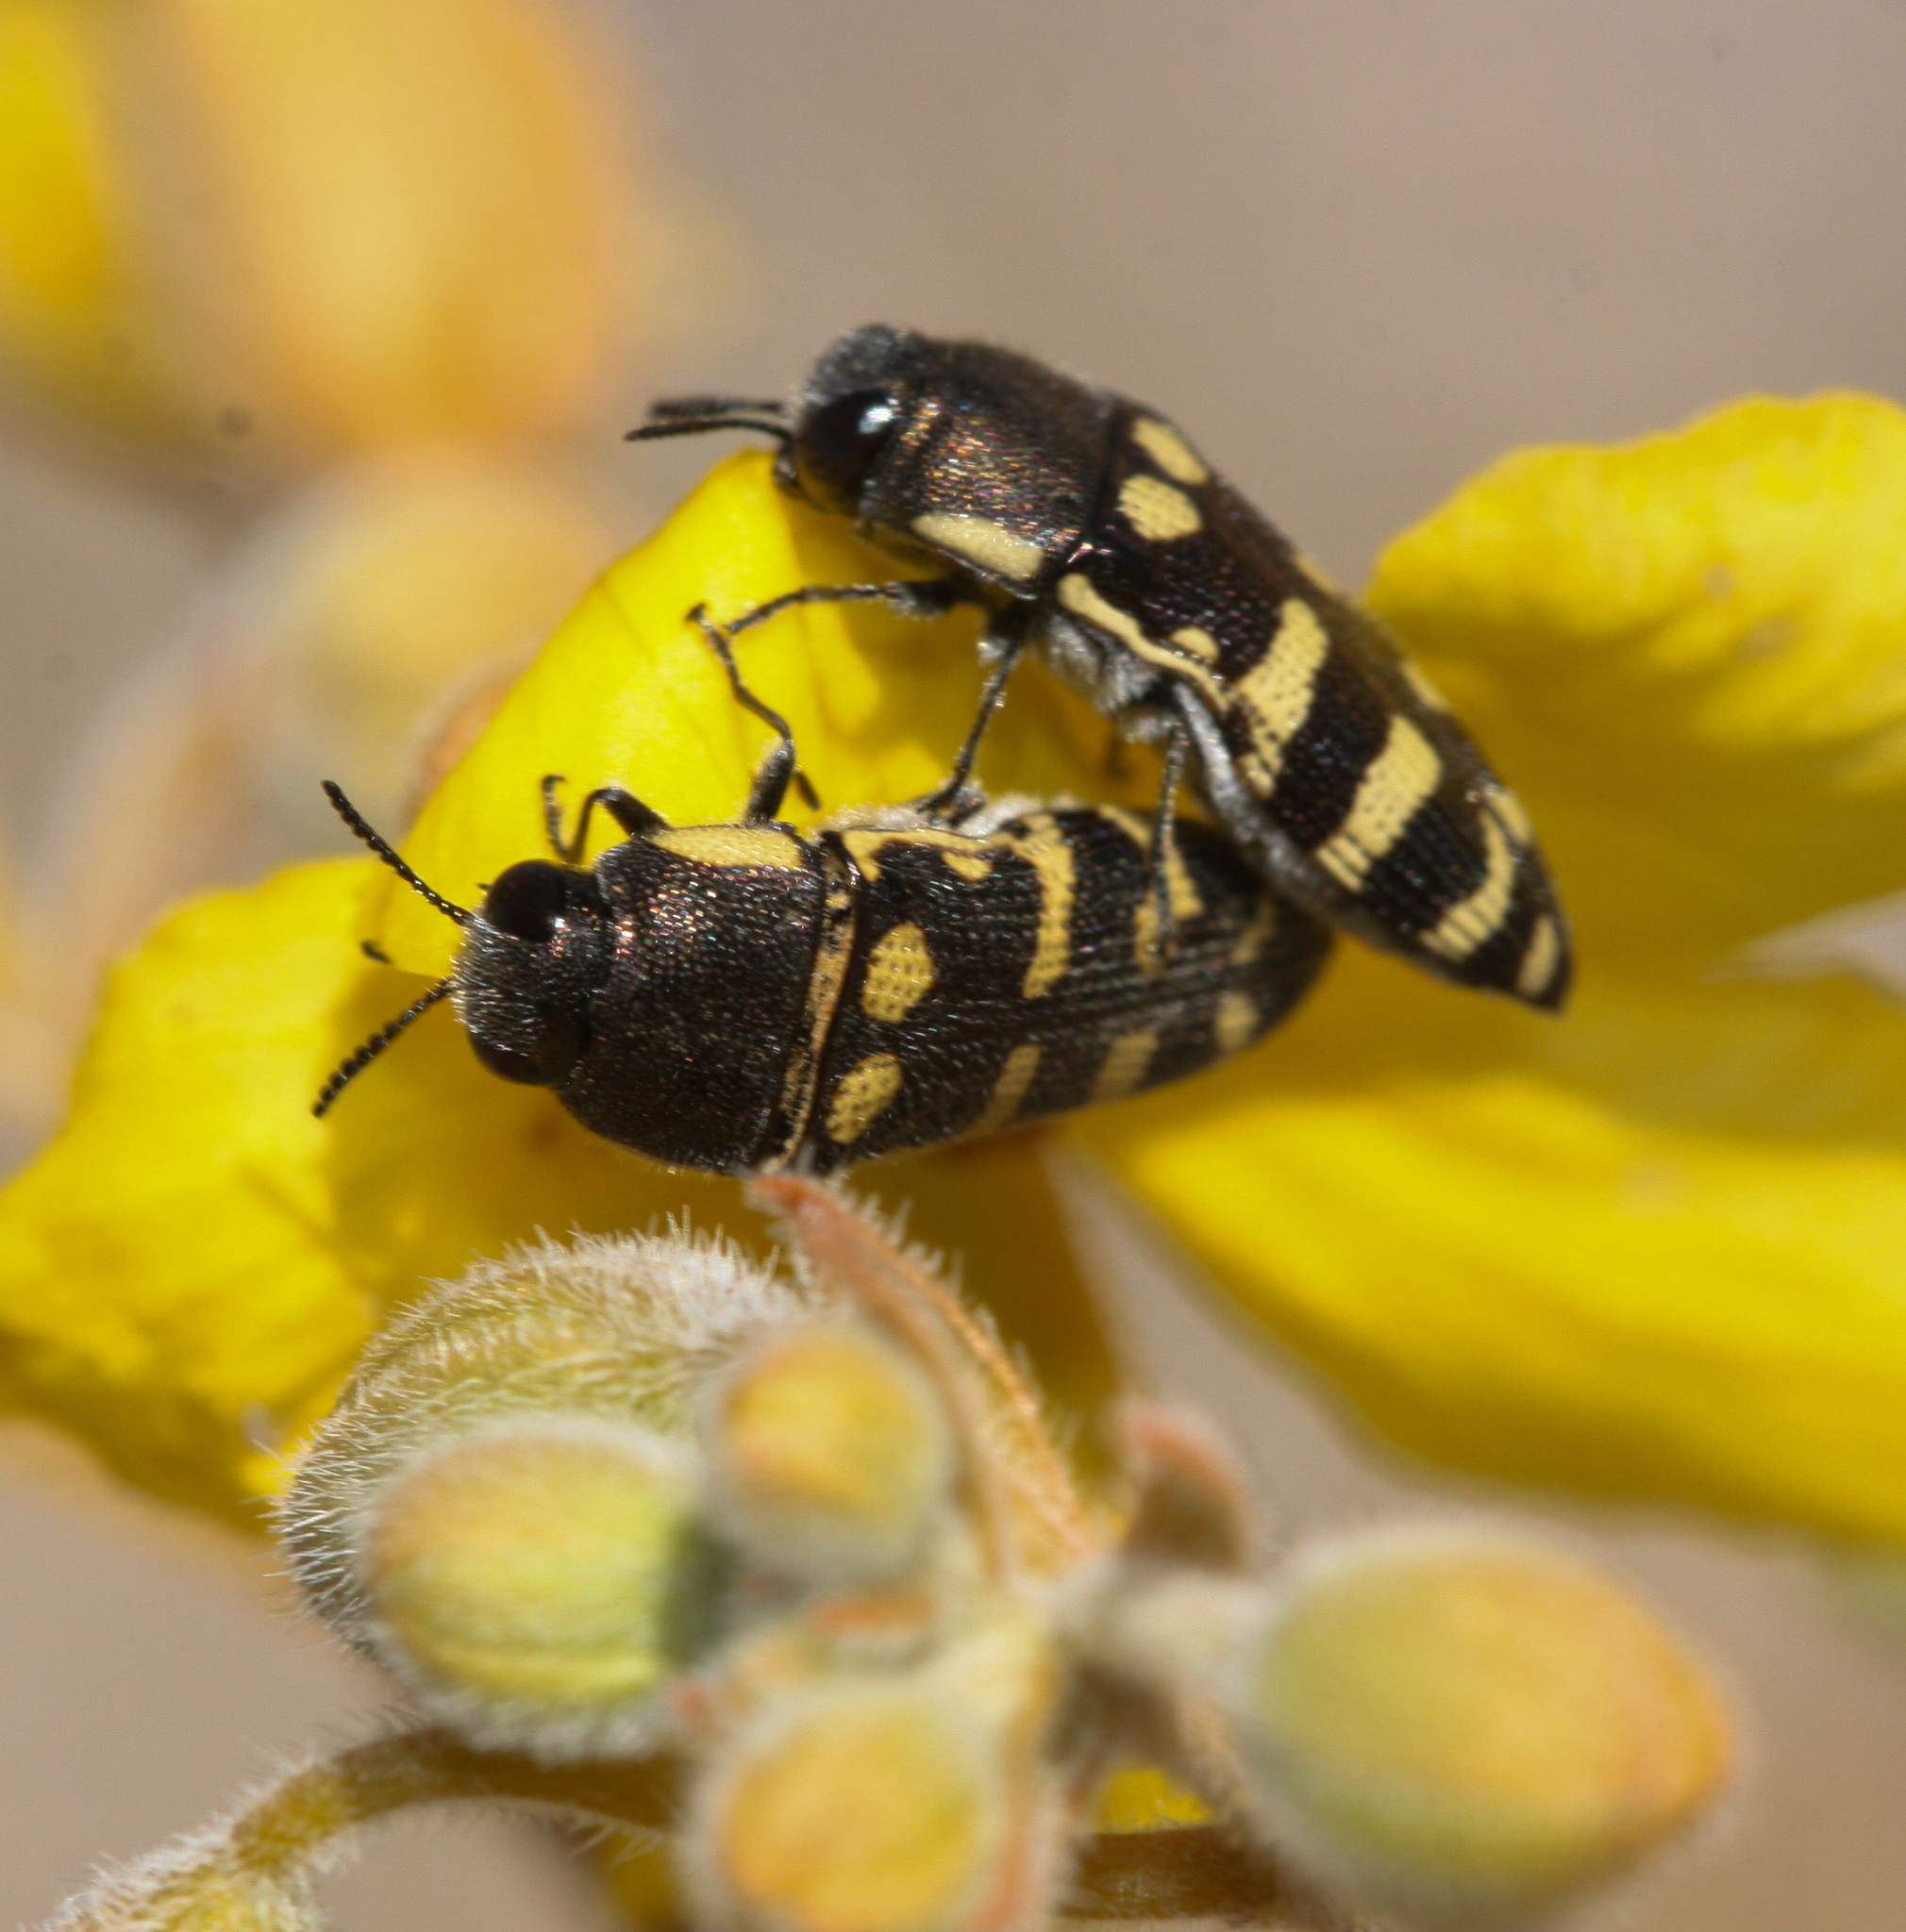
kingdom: Animalia
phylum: Arthropoda
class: Insecta
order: Coleoptera
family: Buprestidae
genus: Acmaeodera
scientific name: Acmaeodera alicia
